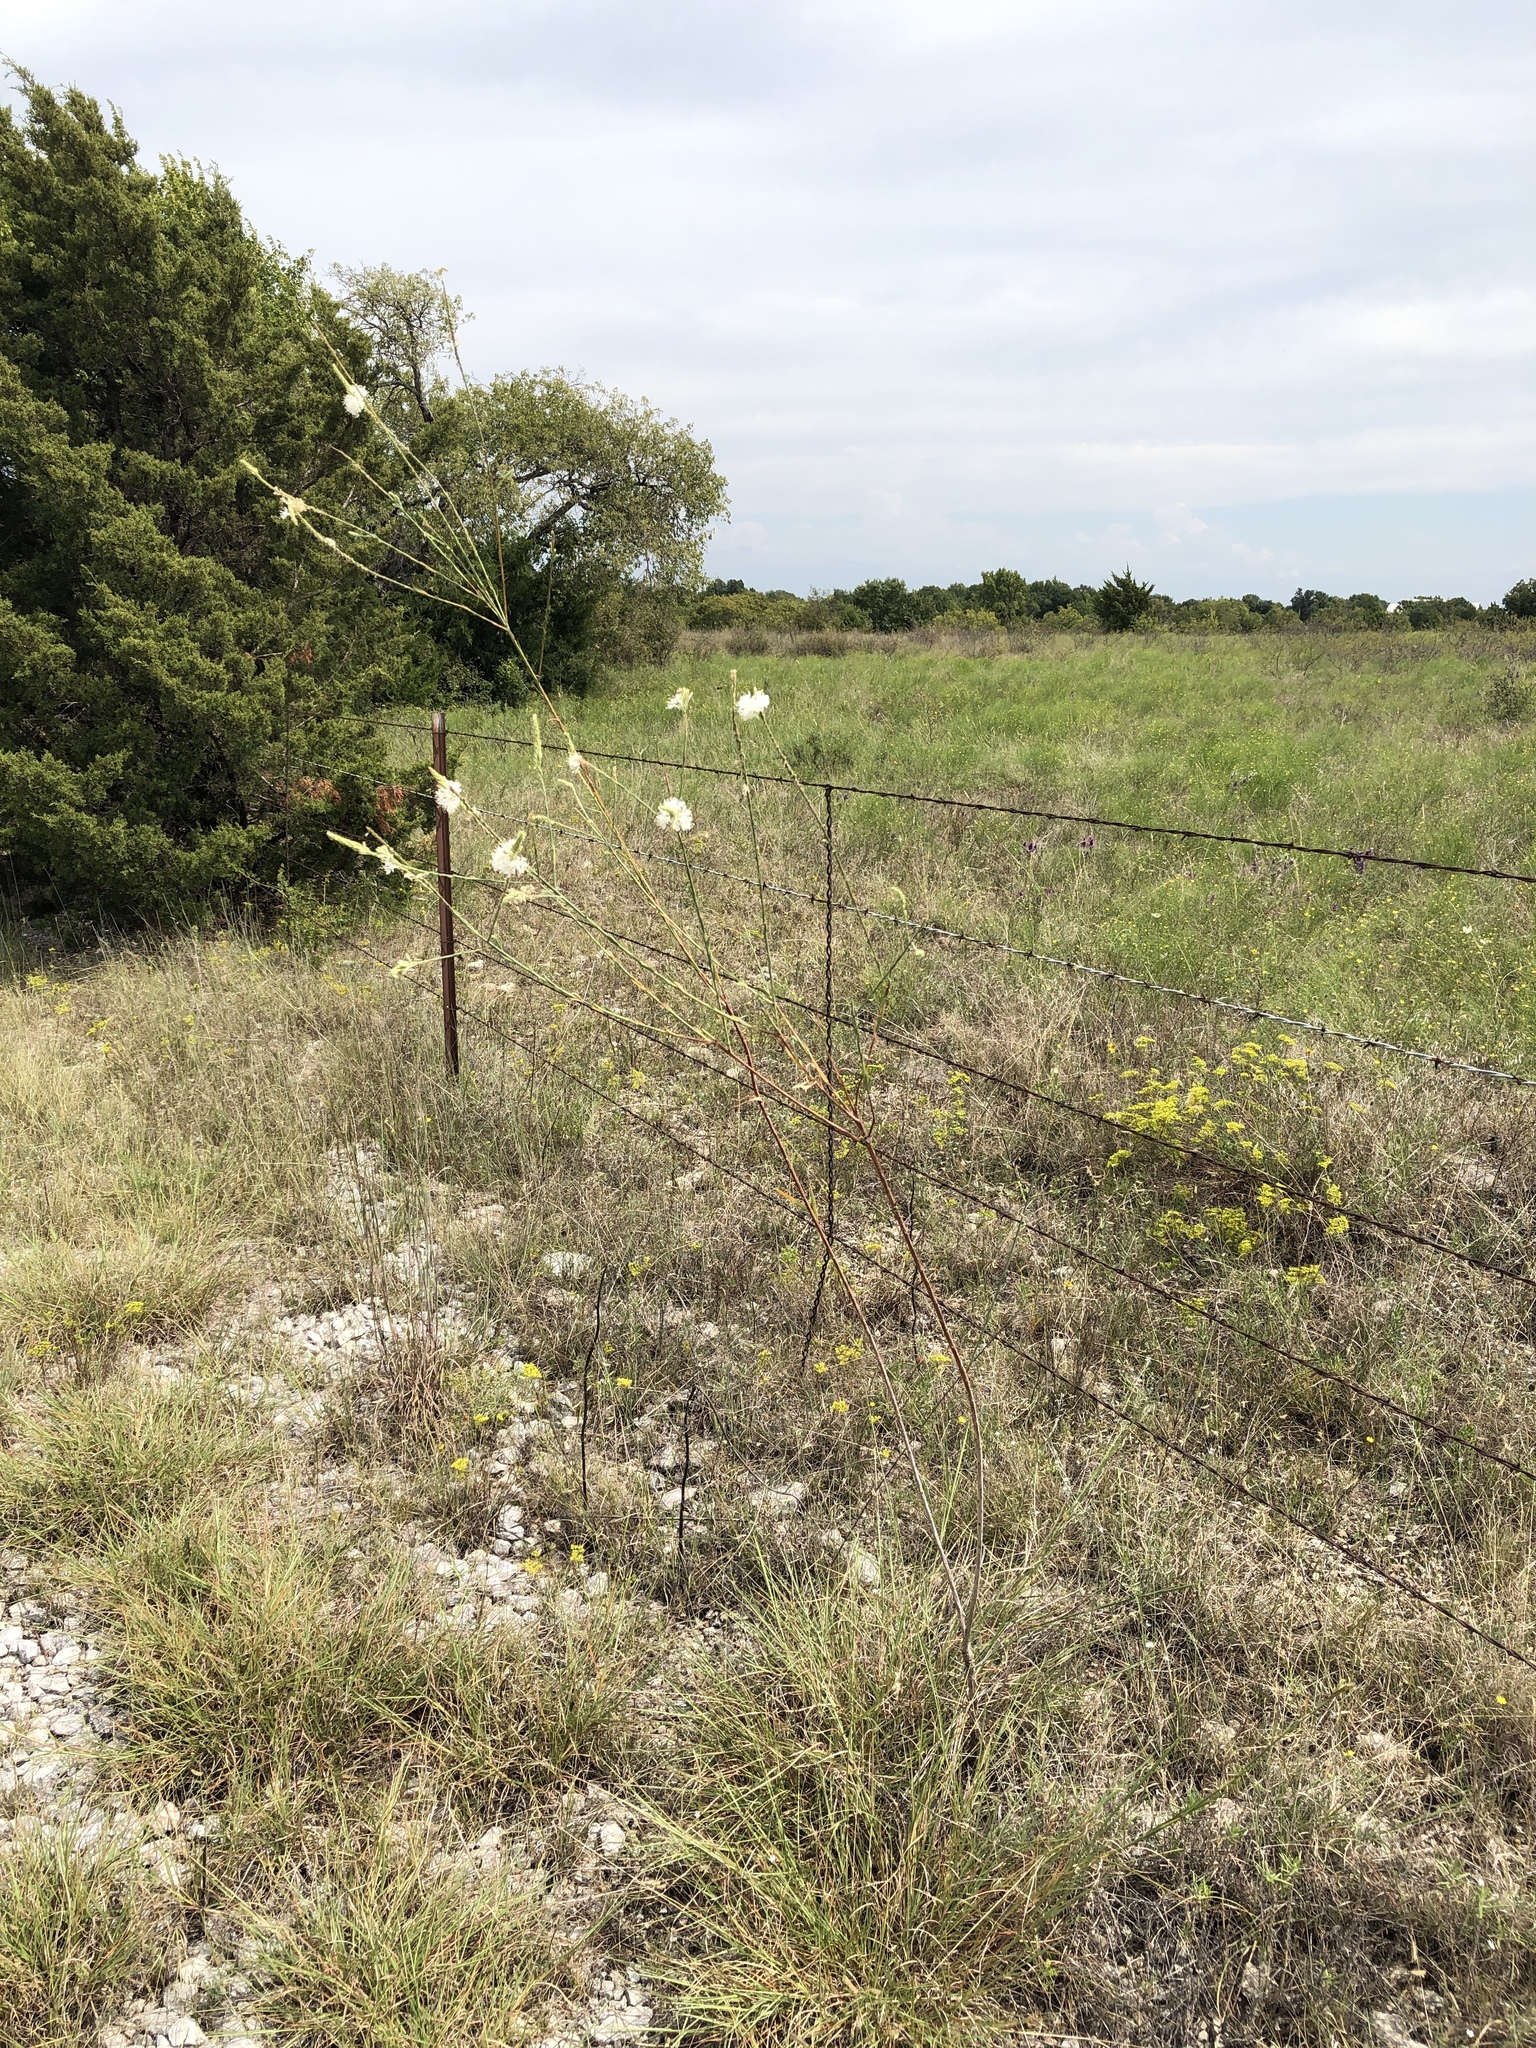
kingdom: Plantae
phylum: Tracheophyta
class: Magnoliopsida
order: Myrtales
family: Onagraceae
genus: Oenothera
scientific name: Oenothera glaucifolia
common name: False gaura
